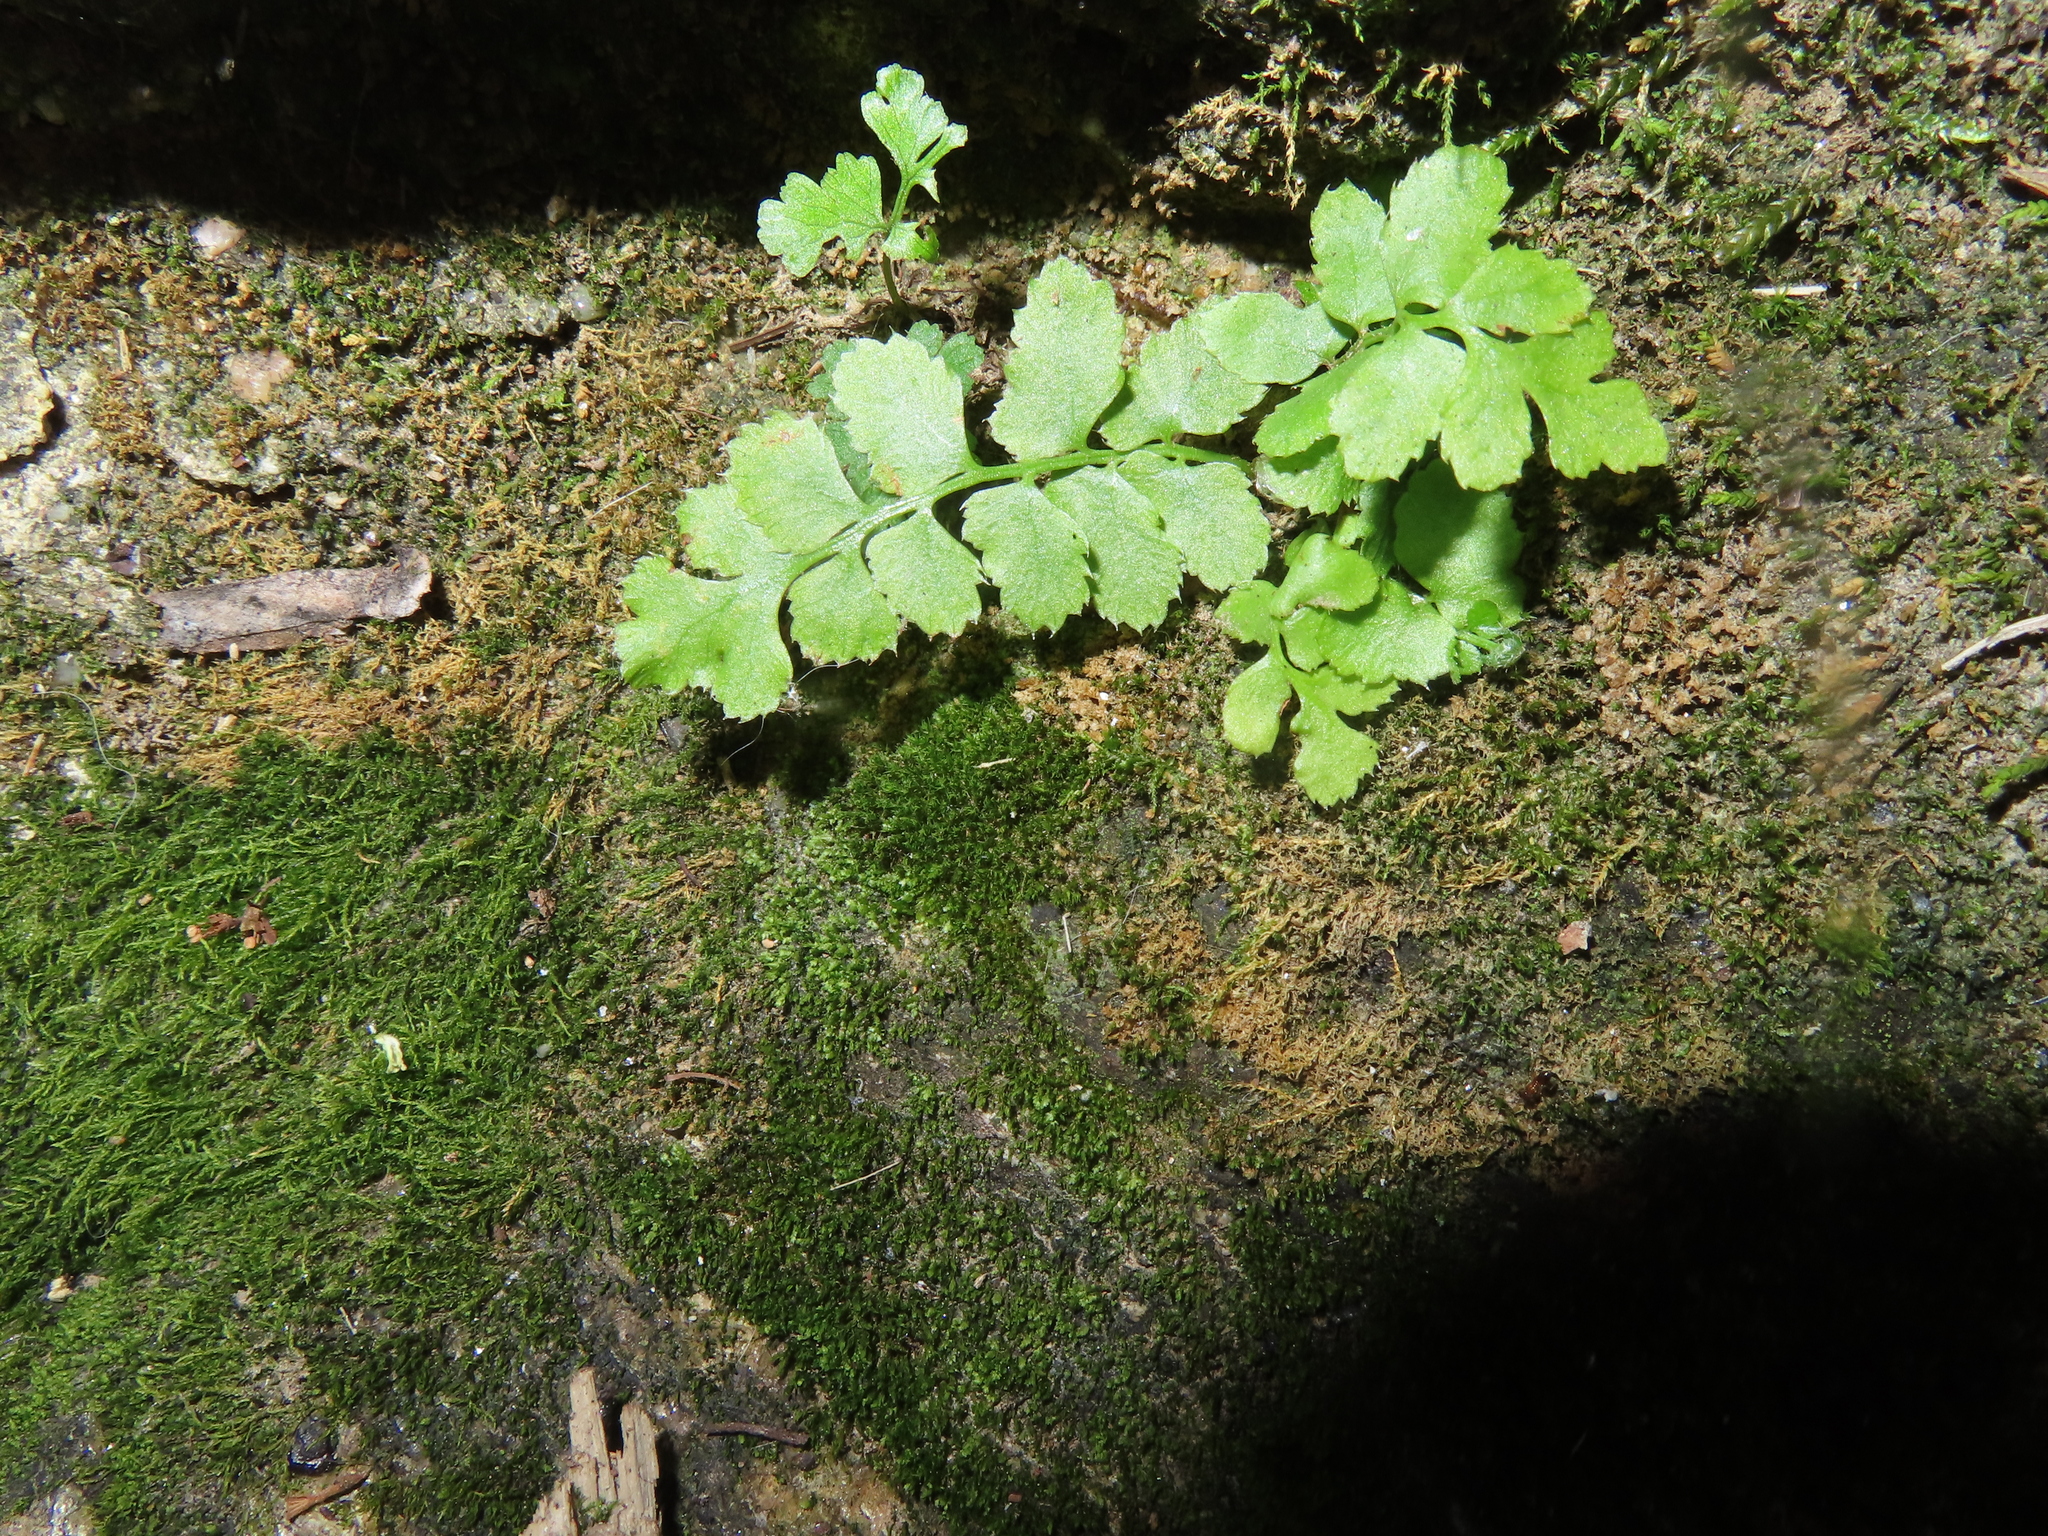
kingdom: Plantae
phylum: Tracheophyta
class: Polypodiopsida
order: Polypodiales
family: Dryopteridaceae
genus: Polystichum
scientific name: Polystichum acrostichoides
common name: Christmas fern
